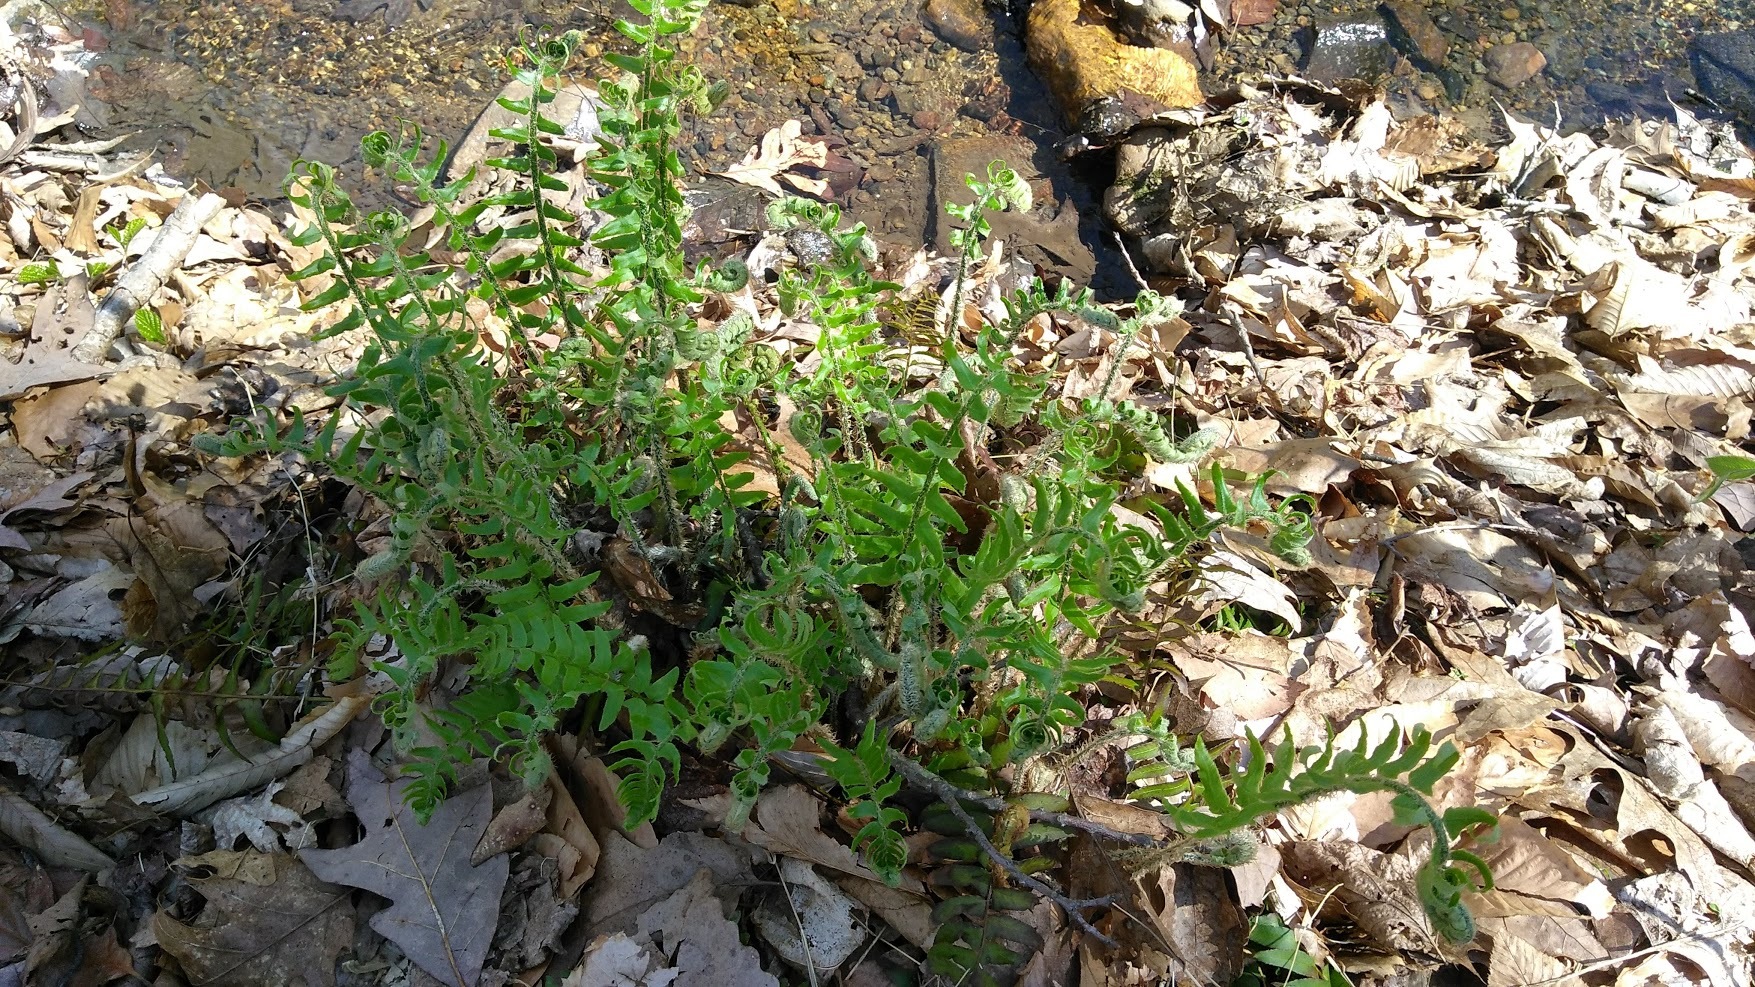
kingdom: Plantae
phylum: Tracheophyta
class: Polypodiopsida
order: Polypodiales
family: Dryopteridaceae
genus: Polystichum
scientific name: Polystichum acrostichoides
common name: Christmas fern
